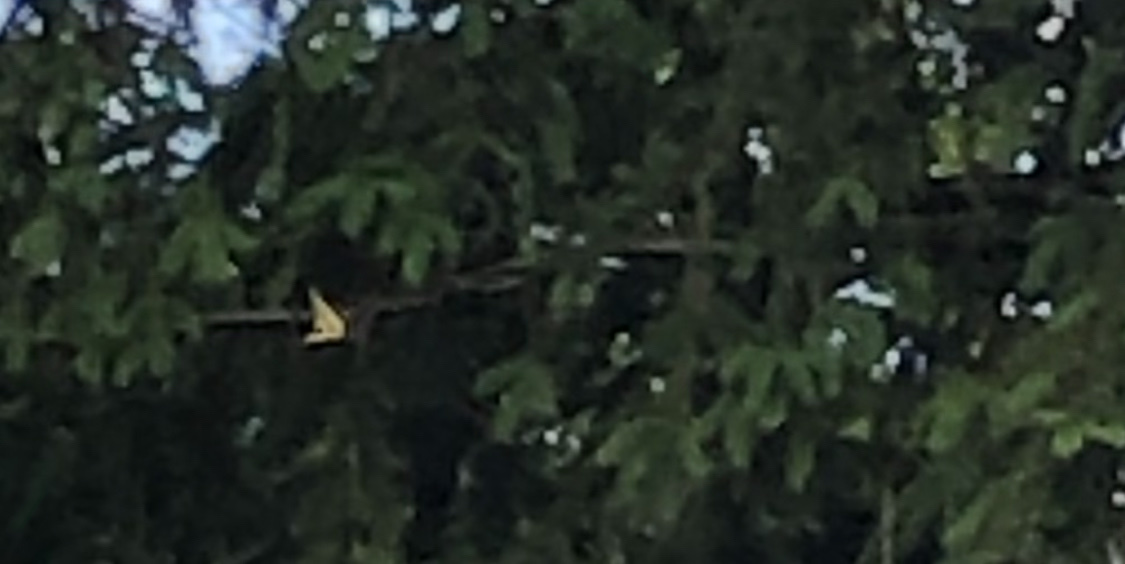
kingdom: Animalia
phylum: Arthropoda
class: Insecta
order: Lepidoptera
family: Papilionidae
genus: Papilio
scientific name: Papilio glaucus
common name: Tiger swallowtail
